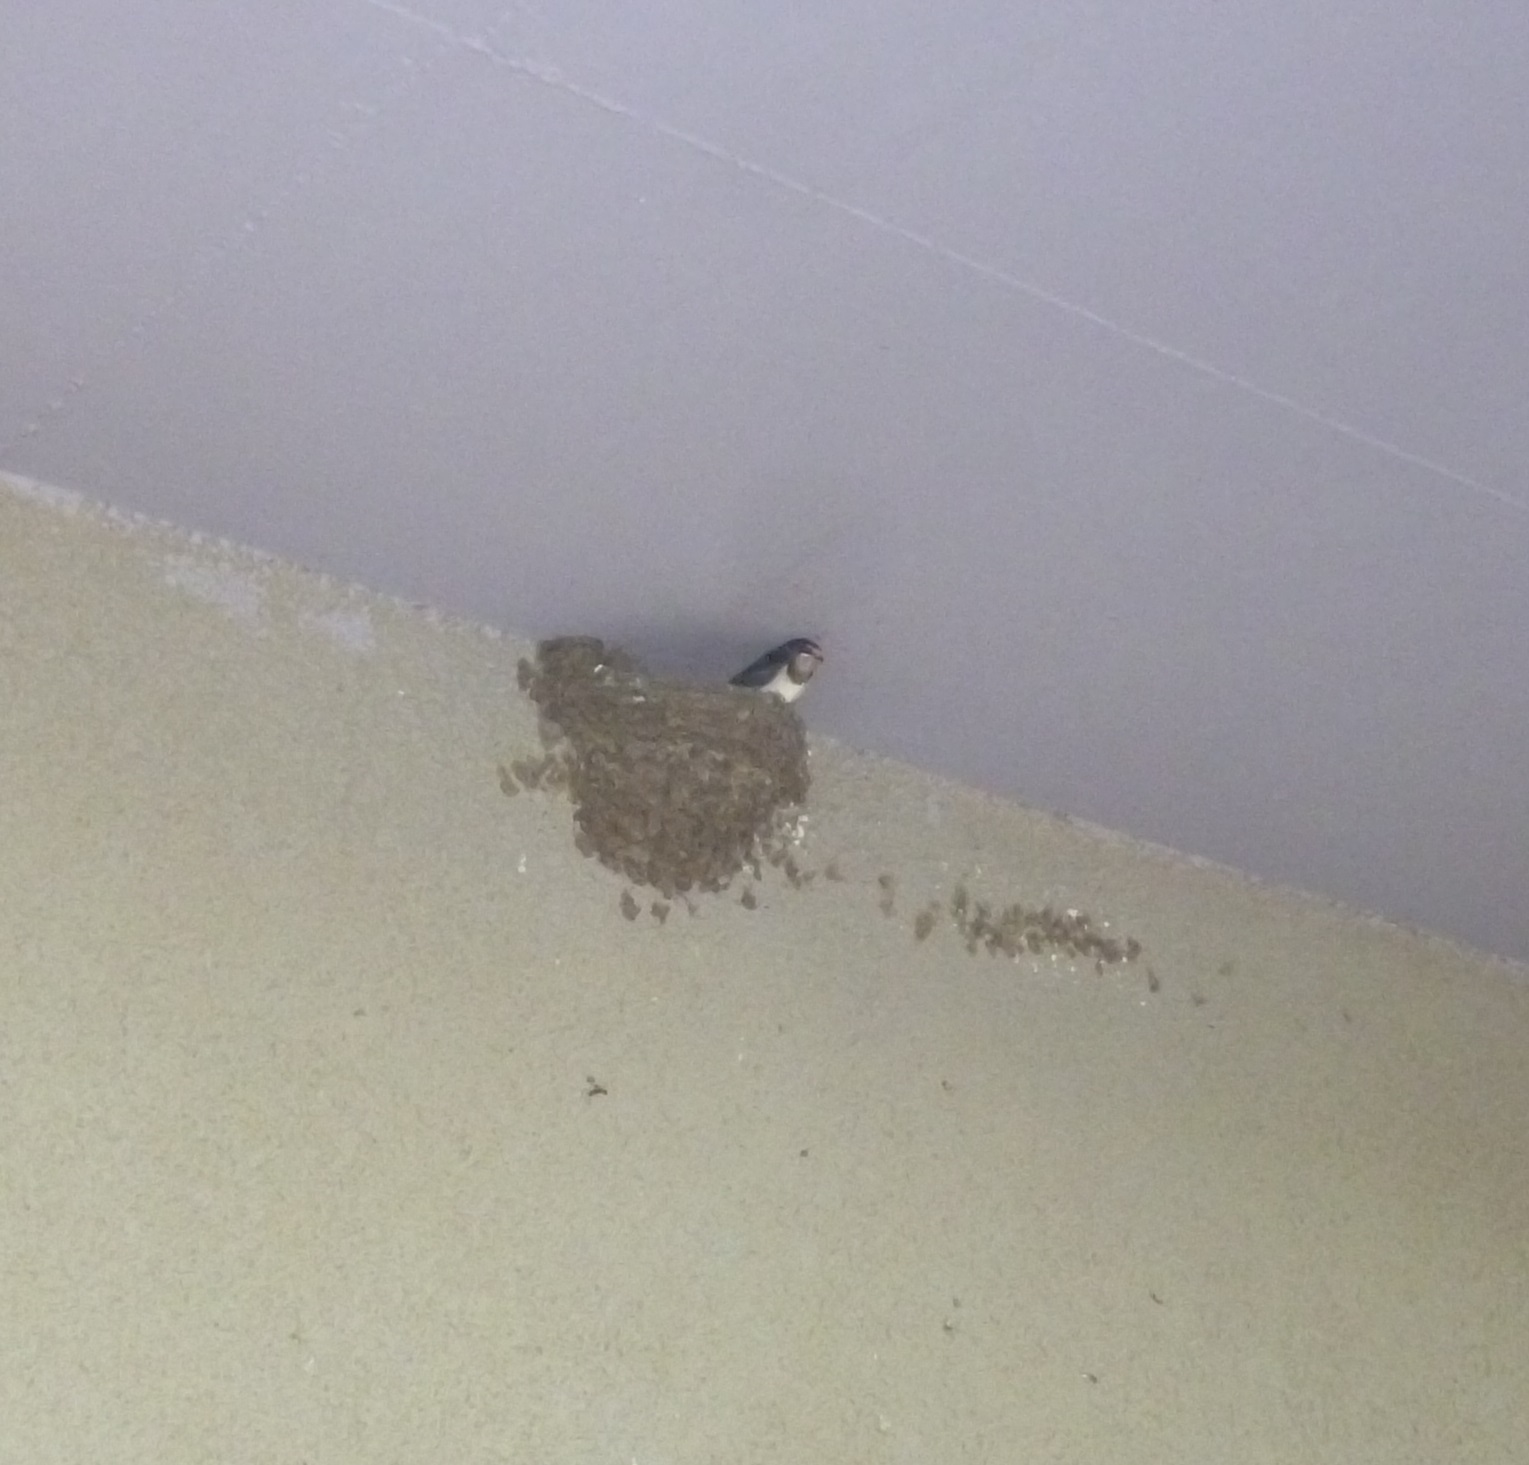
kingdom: Animalia
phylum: Chordata
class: Aves
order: Passeriformes
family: Hirundinidae
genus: Hirundo
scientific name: Hirundo rustica
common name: Barn swallow
